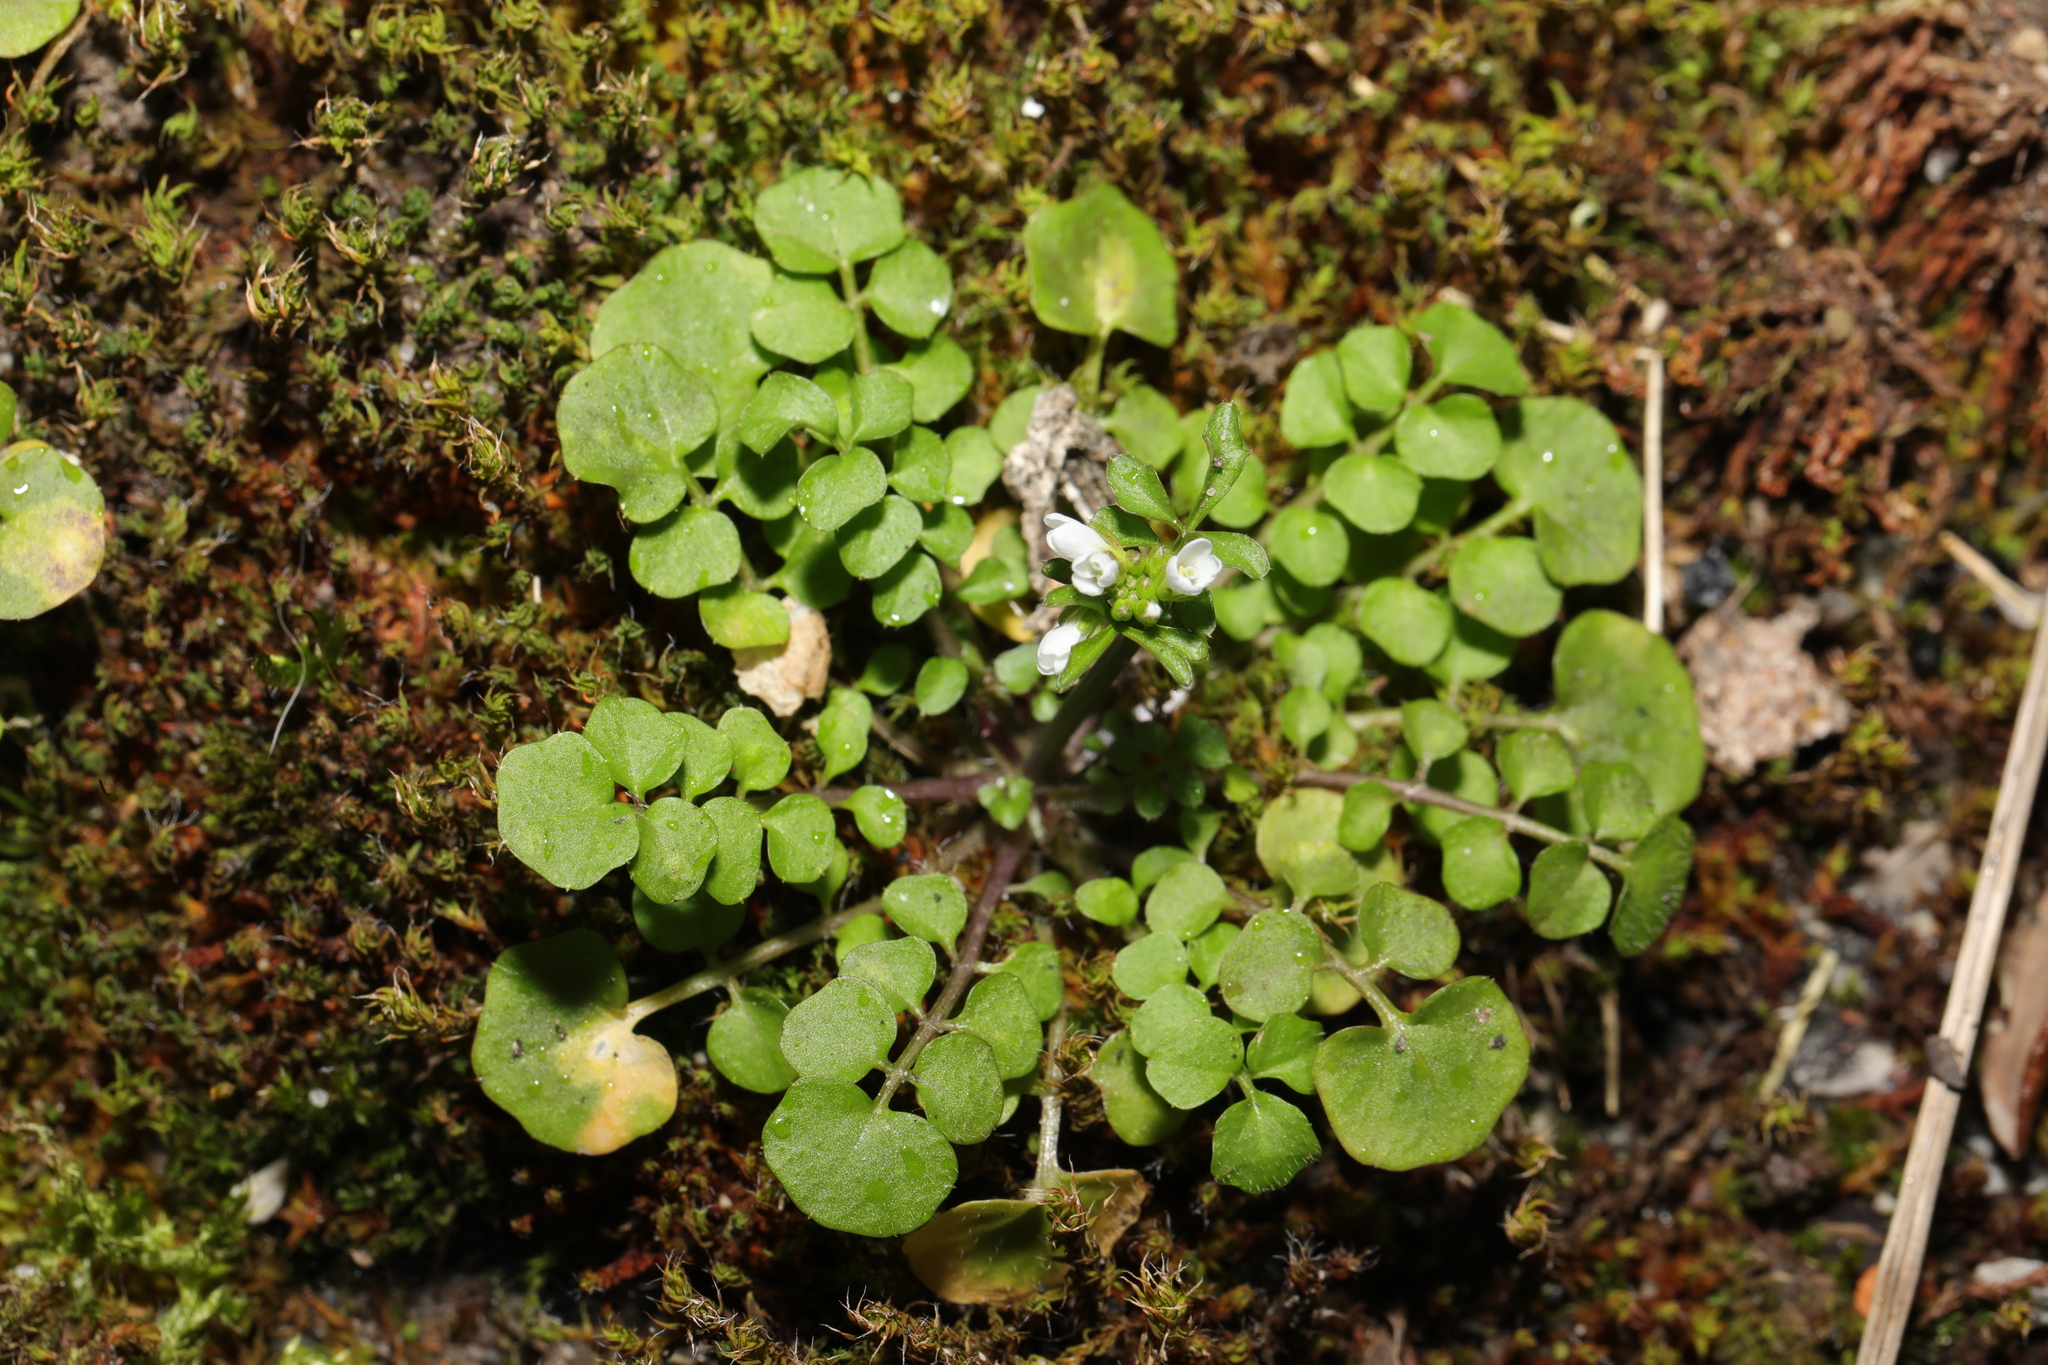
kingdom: Plantae
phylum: Tracheophyta
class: Magnoliopsida
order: Brassicales
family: Brassicaceae
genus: Cardamine
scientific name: Cardamine hirsuta
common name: Hairy bittercress
